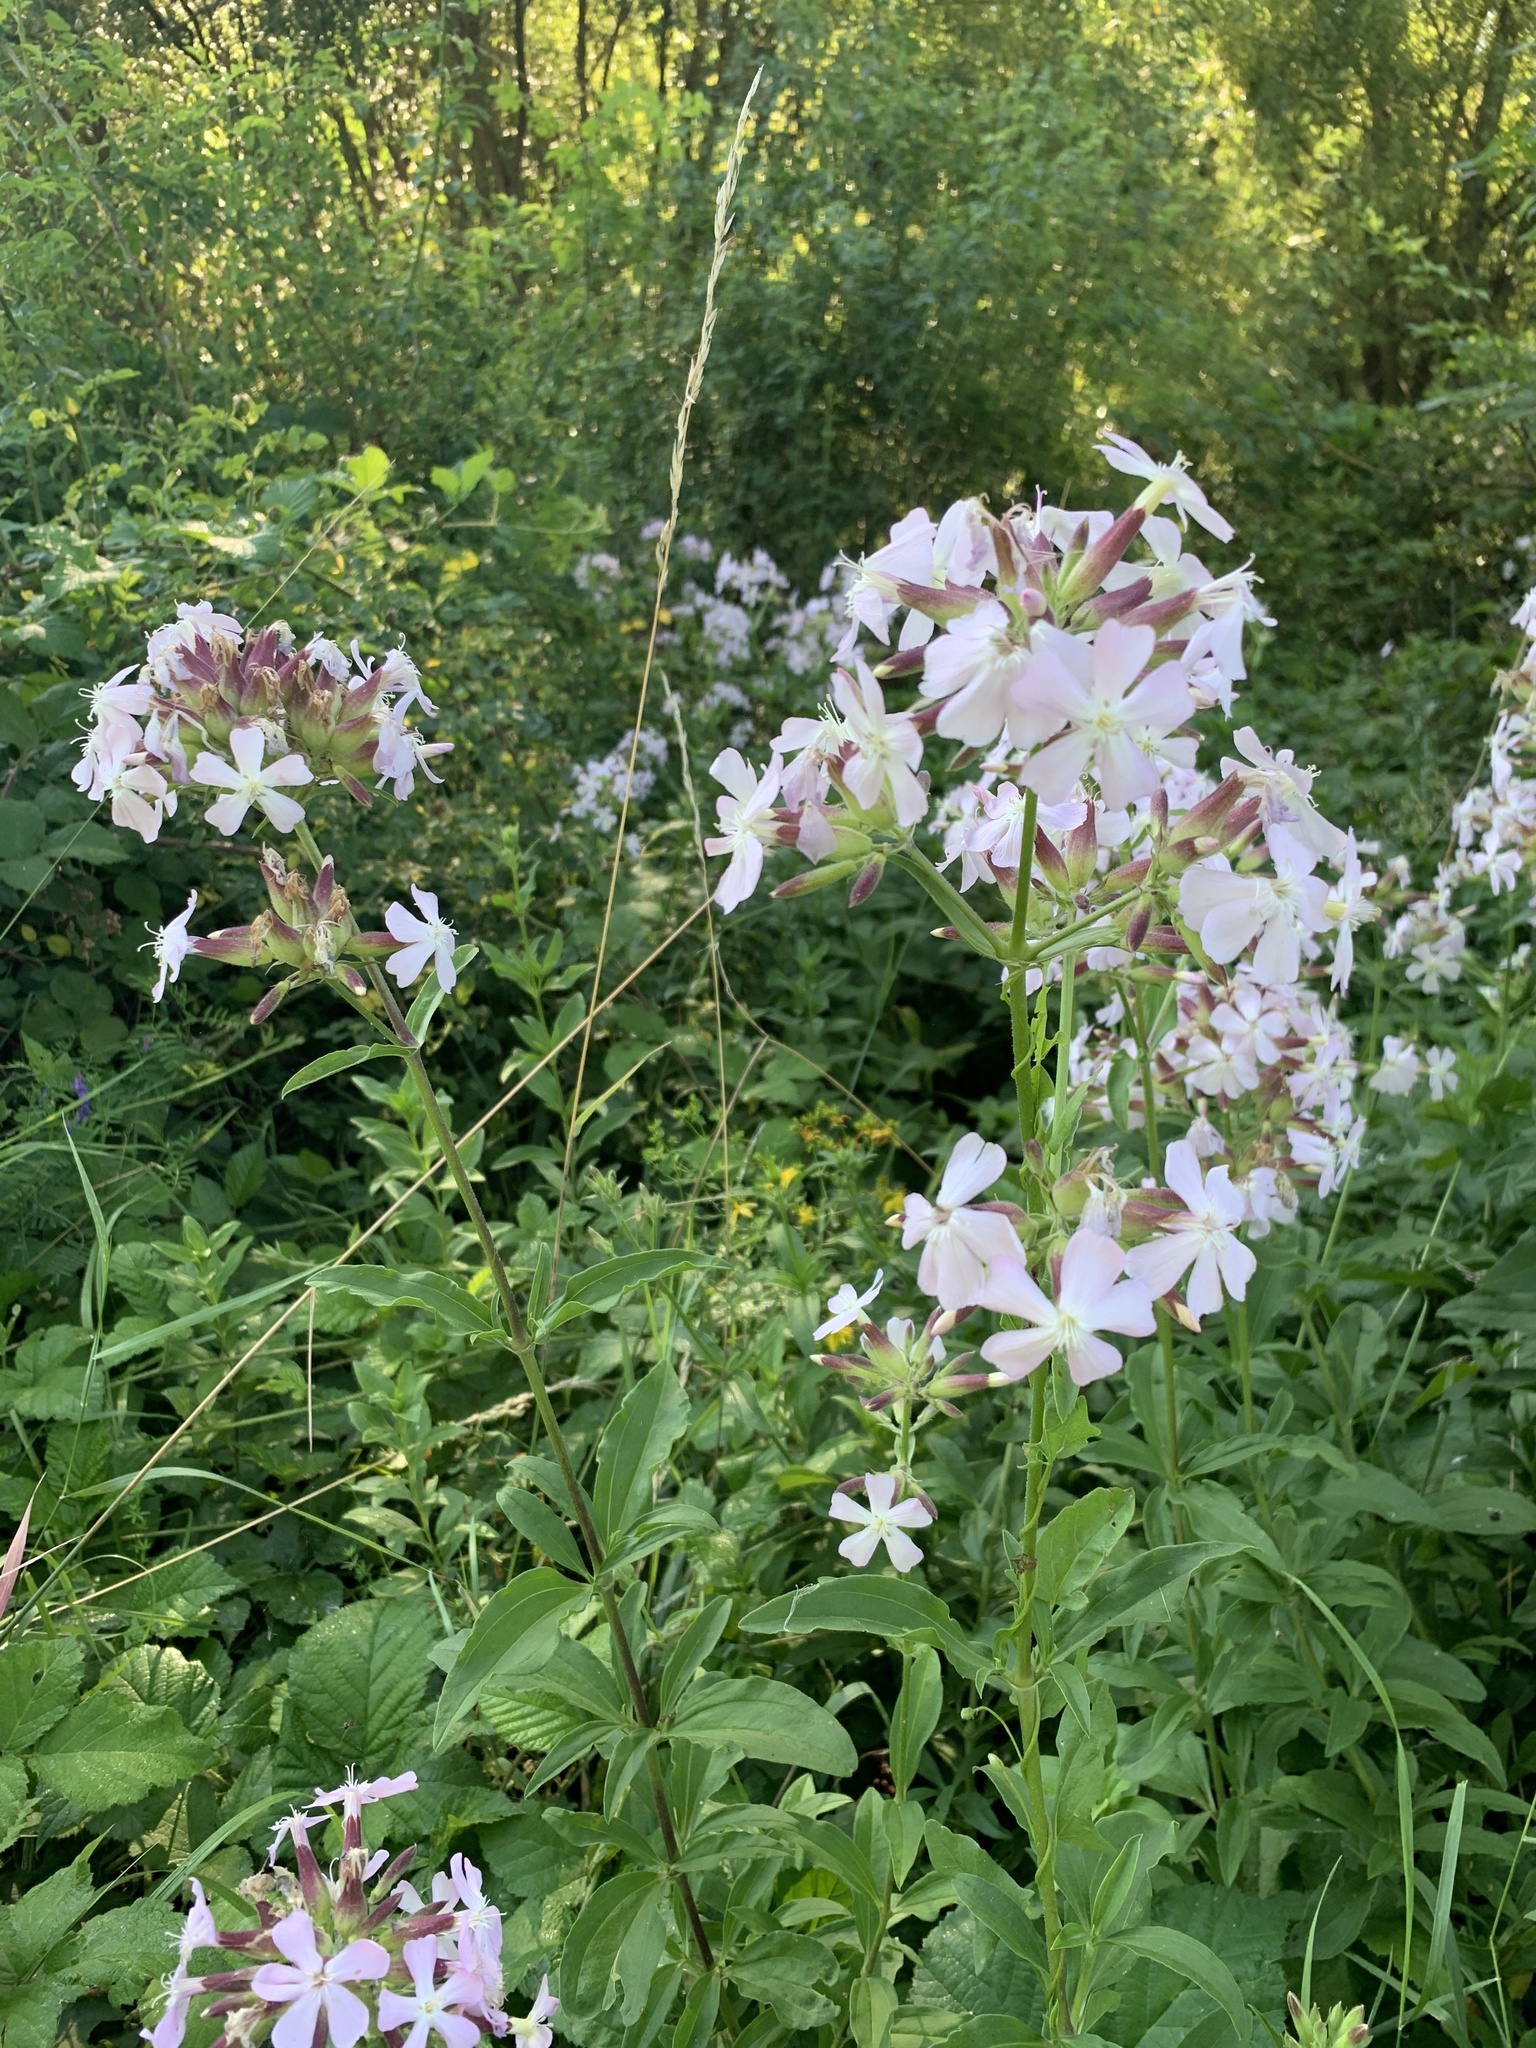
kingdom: Plantae
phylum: Tracheophyta
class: Magnoliopsida
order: Caryophyllales
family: Caryophyllaceae
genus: Saponaria
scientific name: Saponaria officinalis
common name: Soapwort
